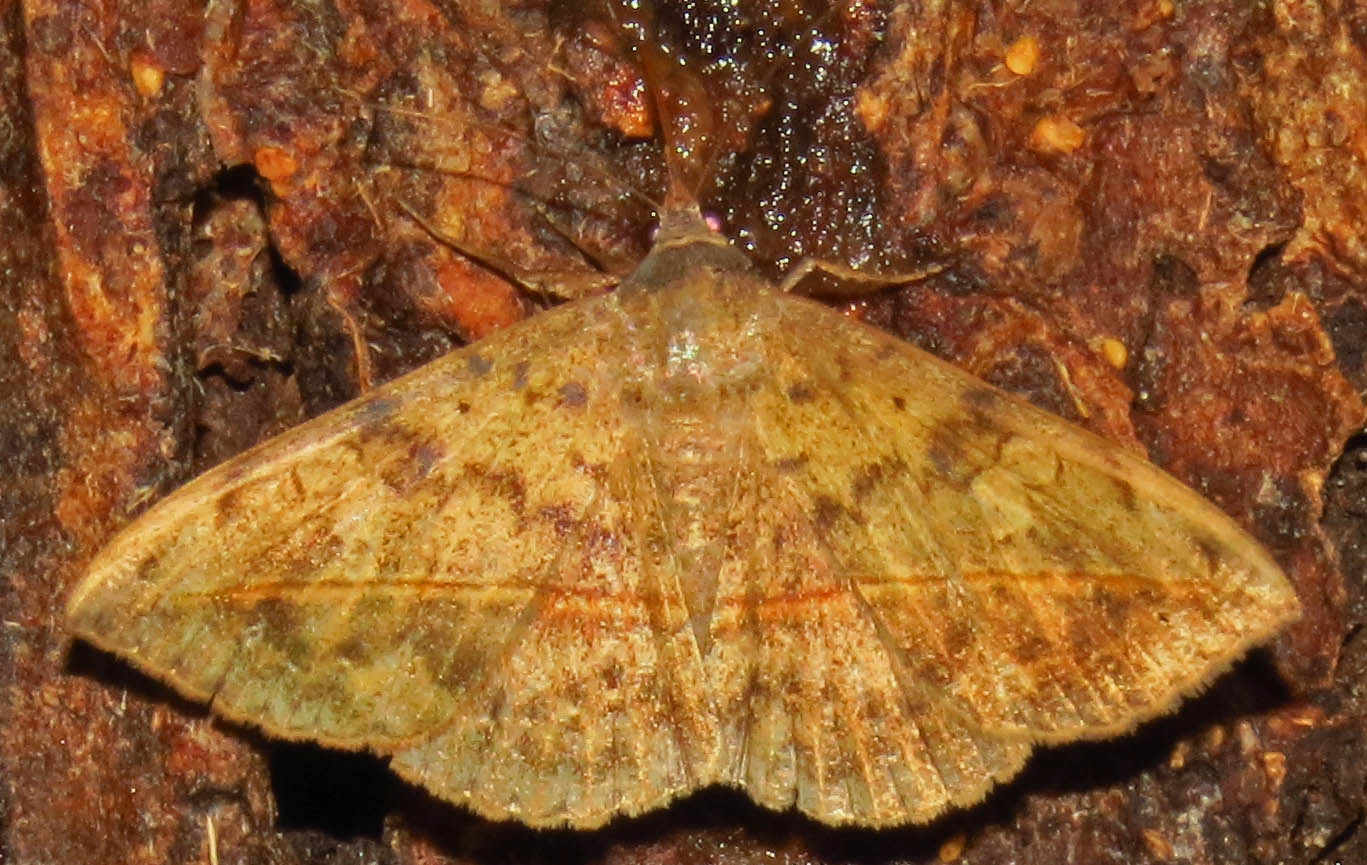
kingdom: Animalia
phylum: Arthropoda
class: Insecta
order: Lepidoptera
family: Erebidae
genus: Anticarsia
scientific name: Anticarsia gemmatalis
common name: Cutworm moth
